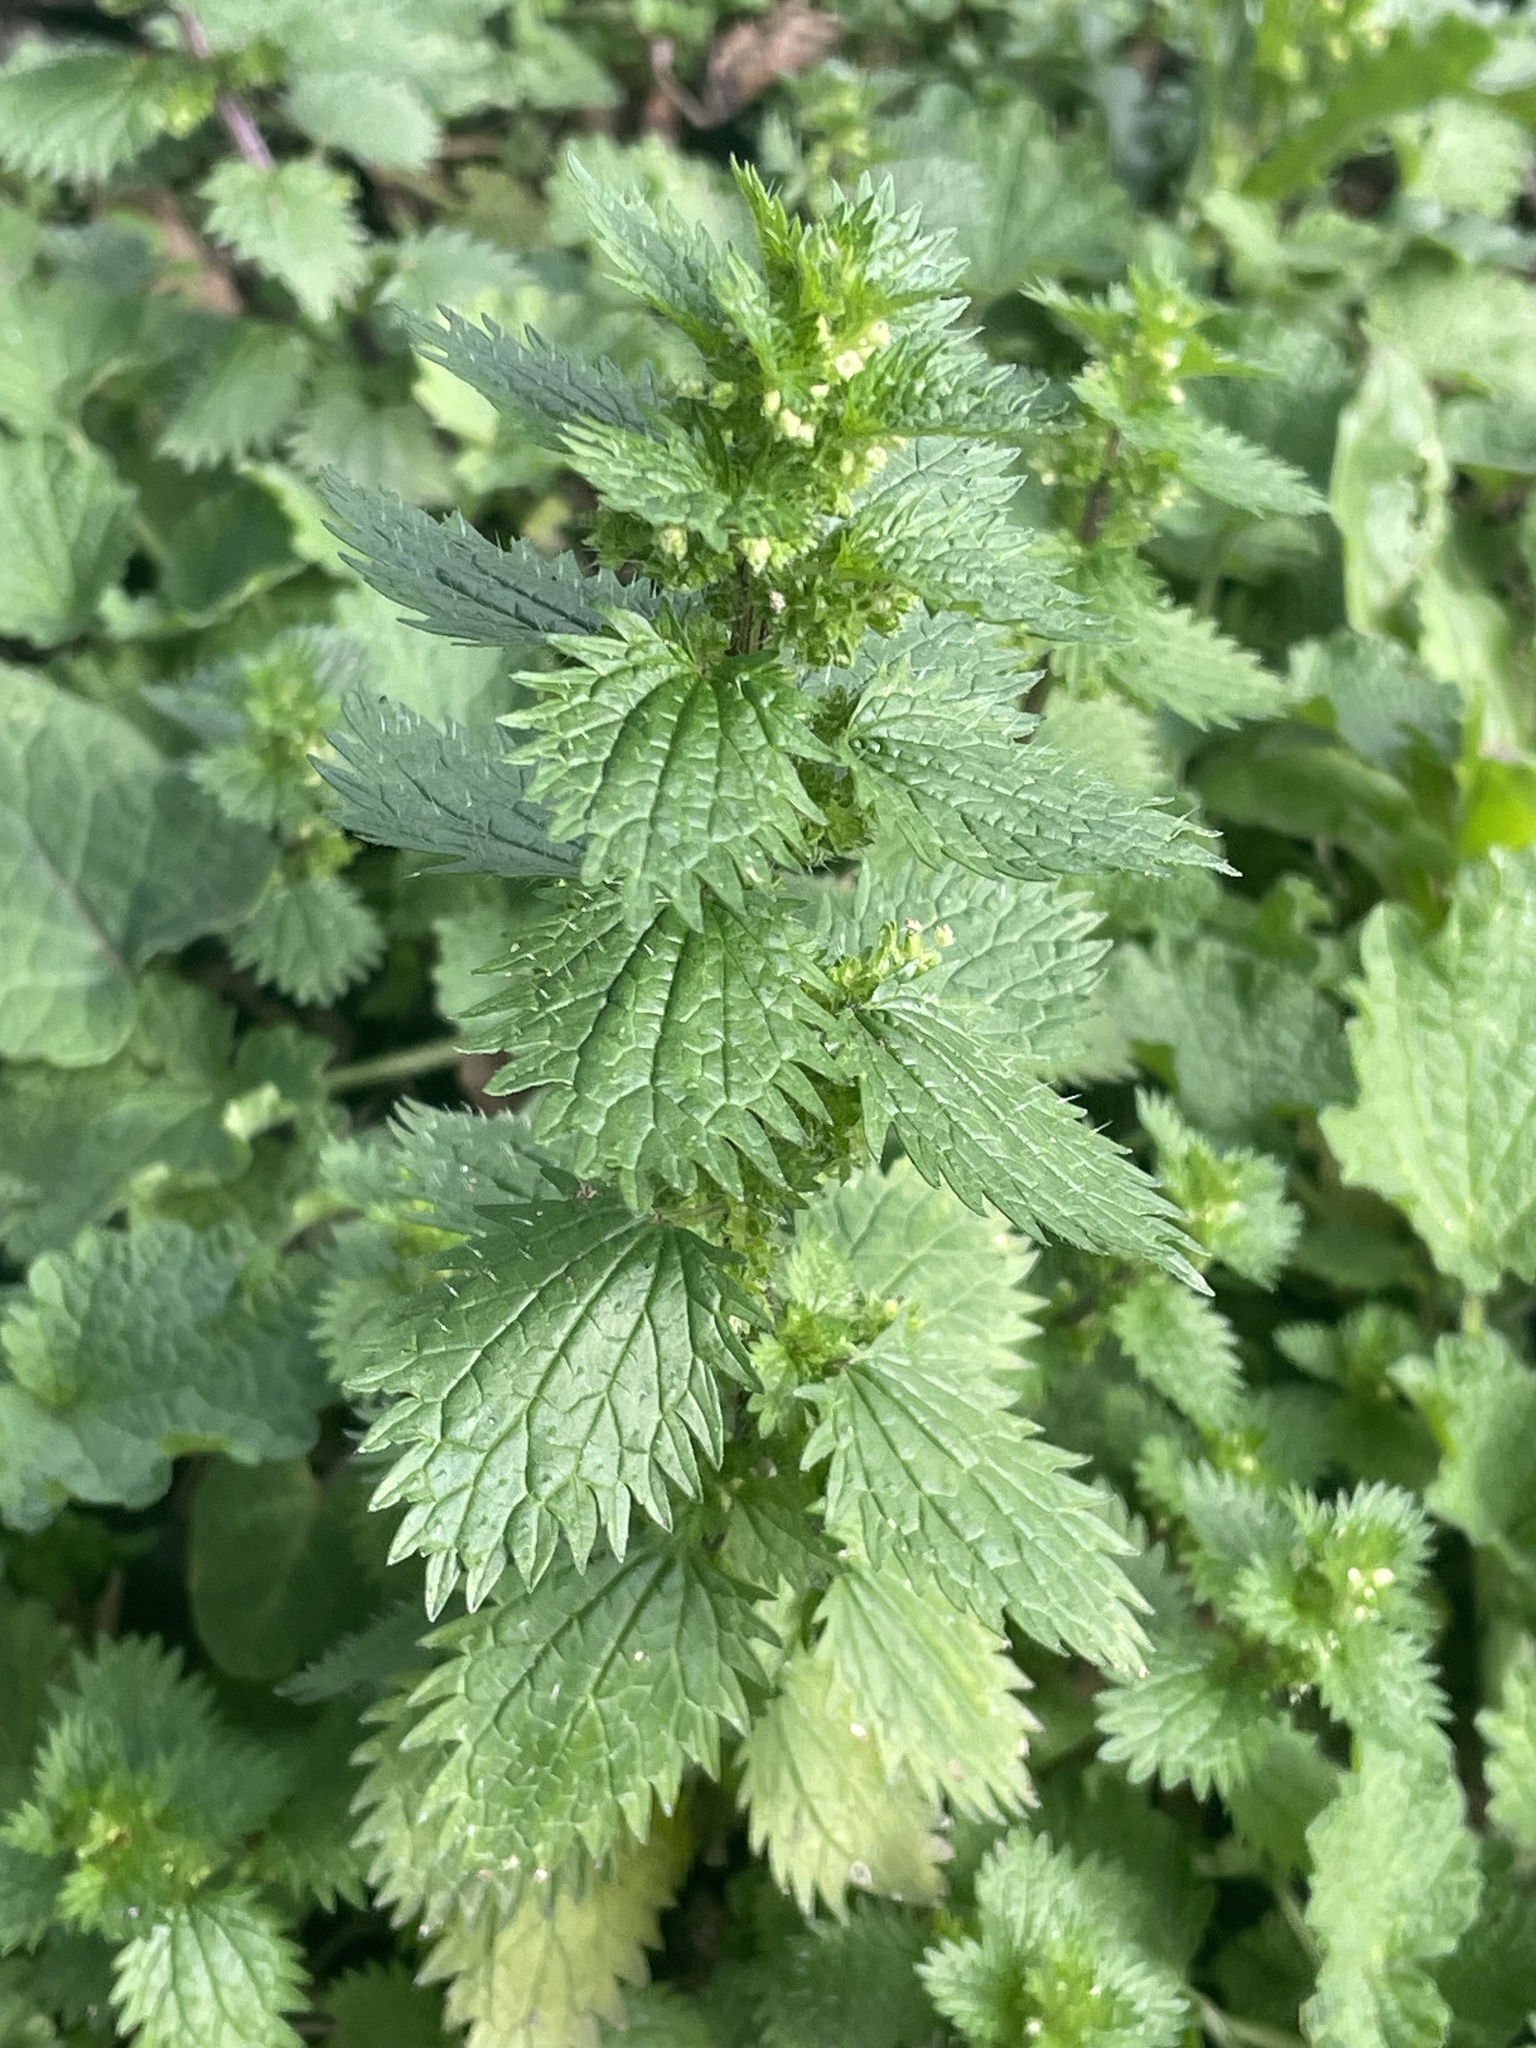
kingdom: Plantae
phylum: Tracheophyta
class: Magnoliopsida
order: Rosales
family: Urticaceae
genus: Urtica
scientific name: Urtica urens
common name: Dwarf nettle
